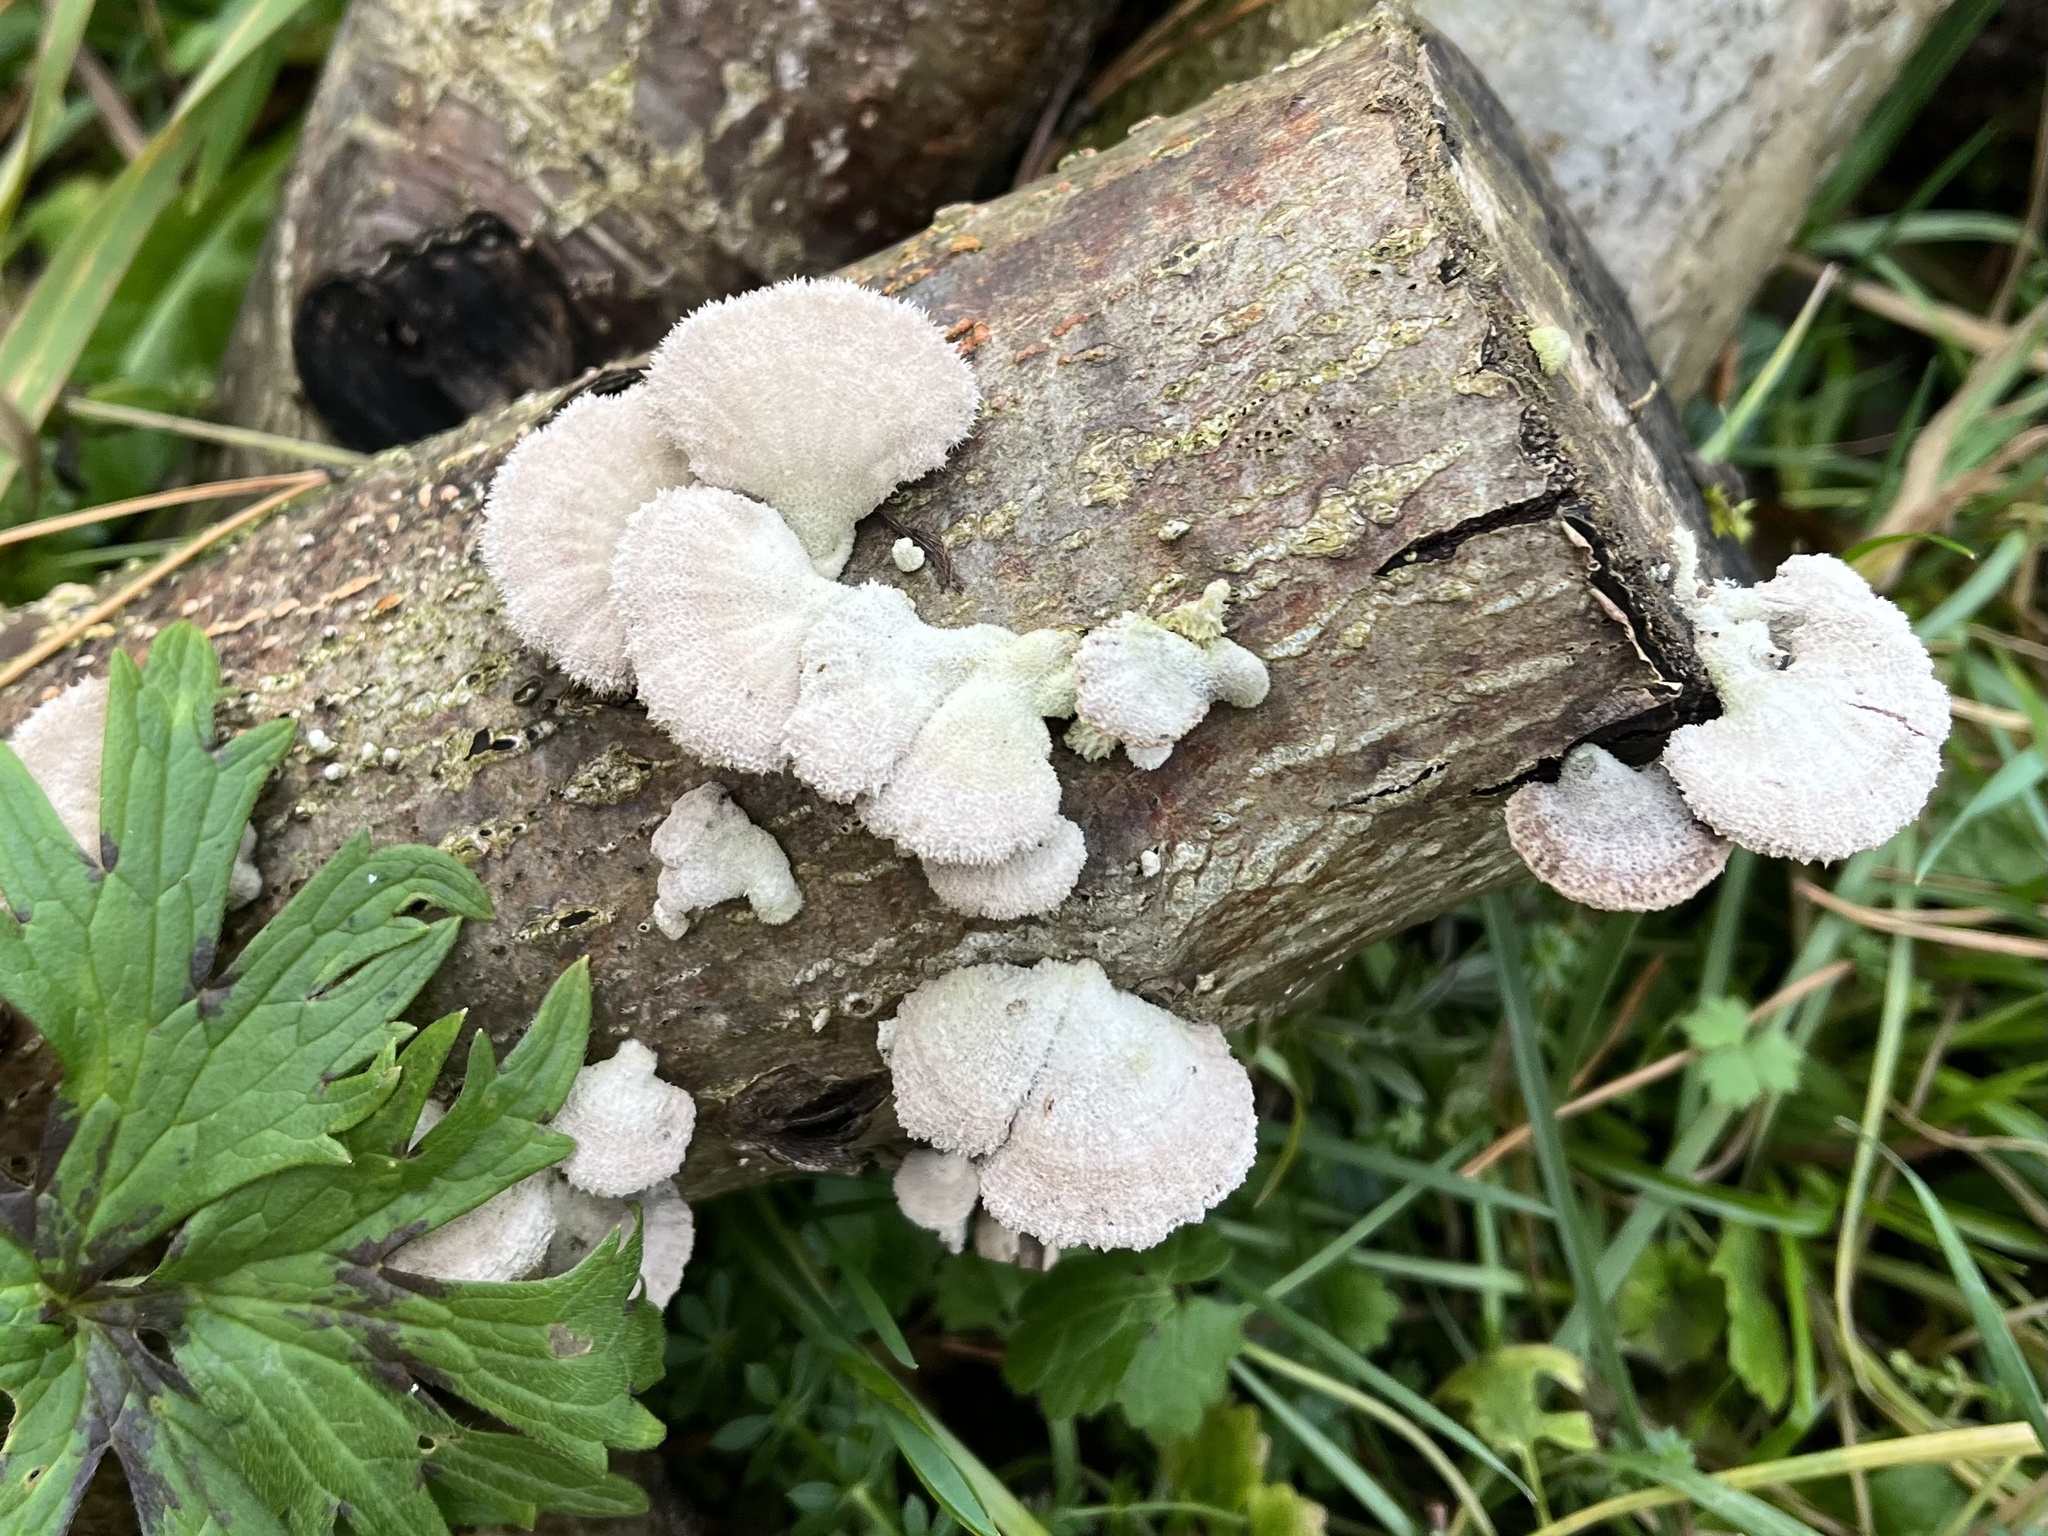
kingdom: Fungi
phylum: Basidiomycota
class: Agaricomycetes
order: Agaricales
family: Schizophyllaceae
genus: Schizophyllum
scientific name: Schizophyllum commune
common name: Common porecrust
